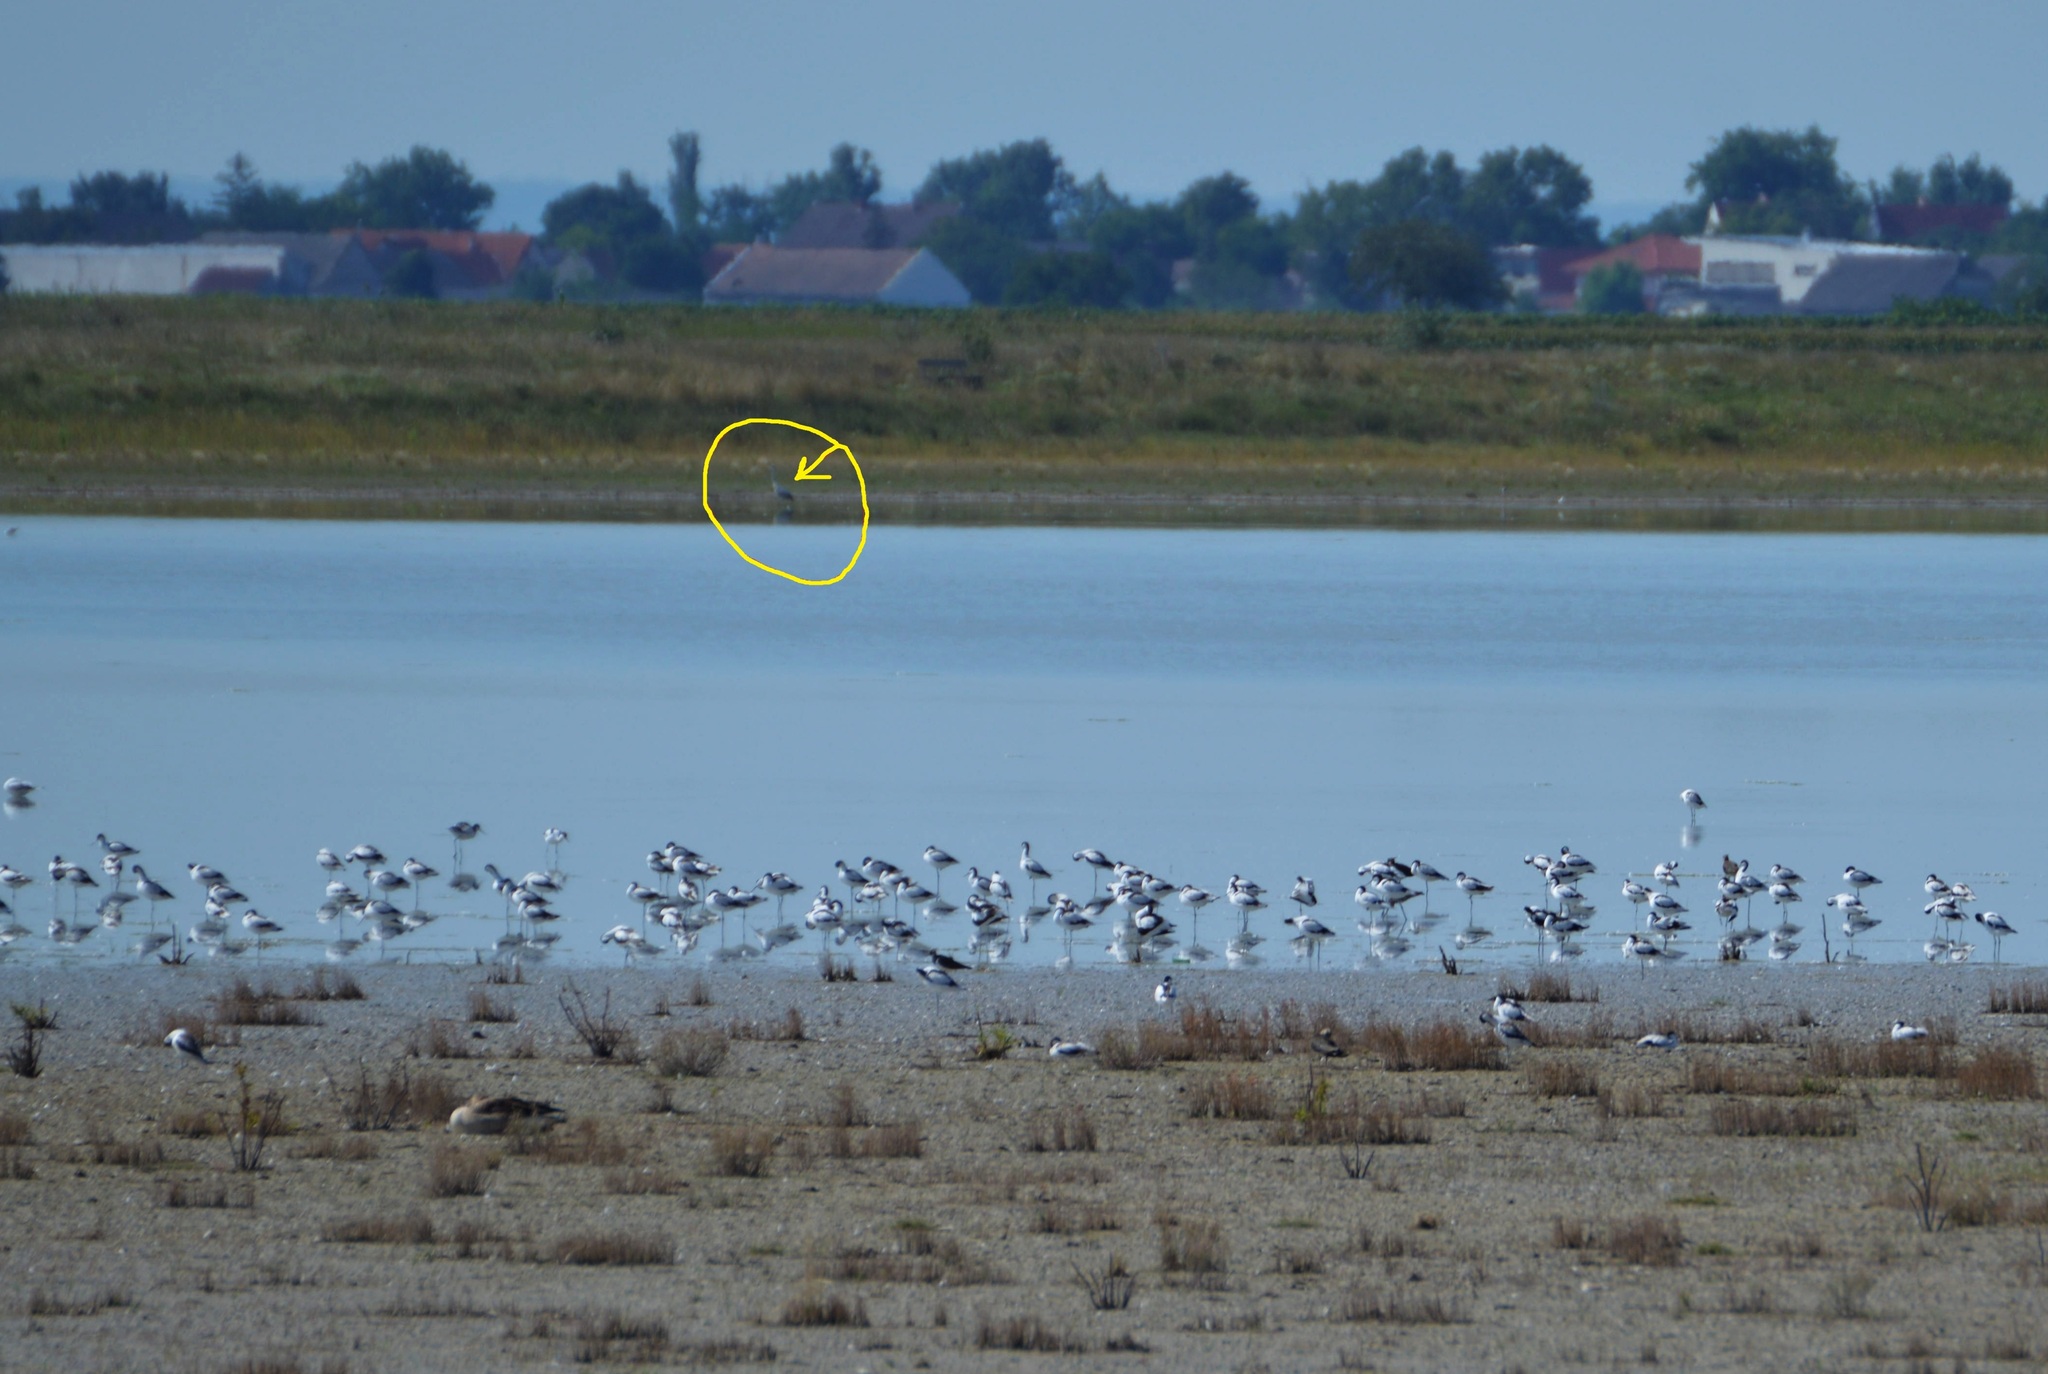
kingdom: Animalia
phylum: Chordata
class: Aves
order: Pelecaniformes
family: Ardeidae
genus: Ardea
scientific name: Ardea cinerea
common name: Grey heron
